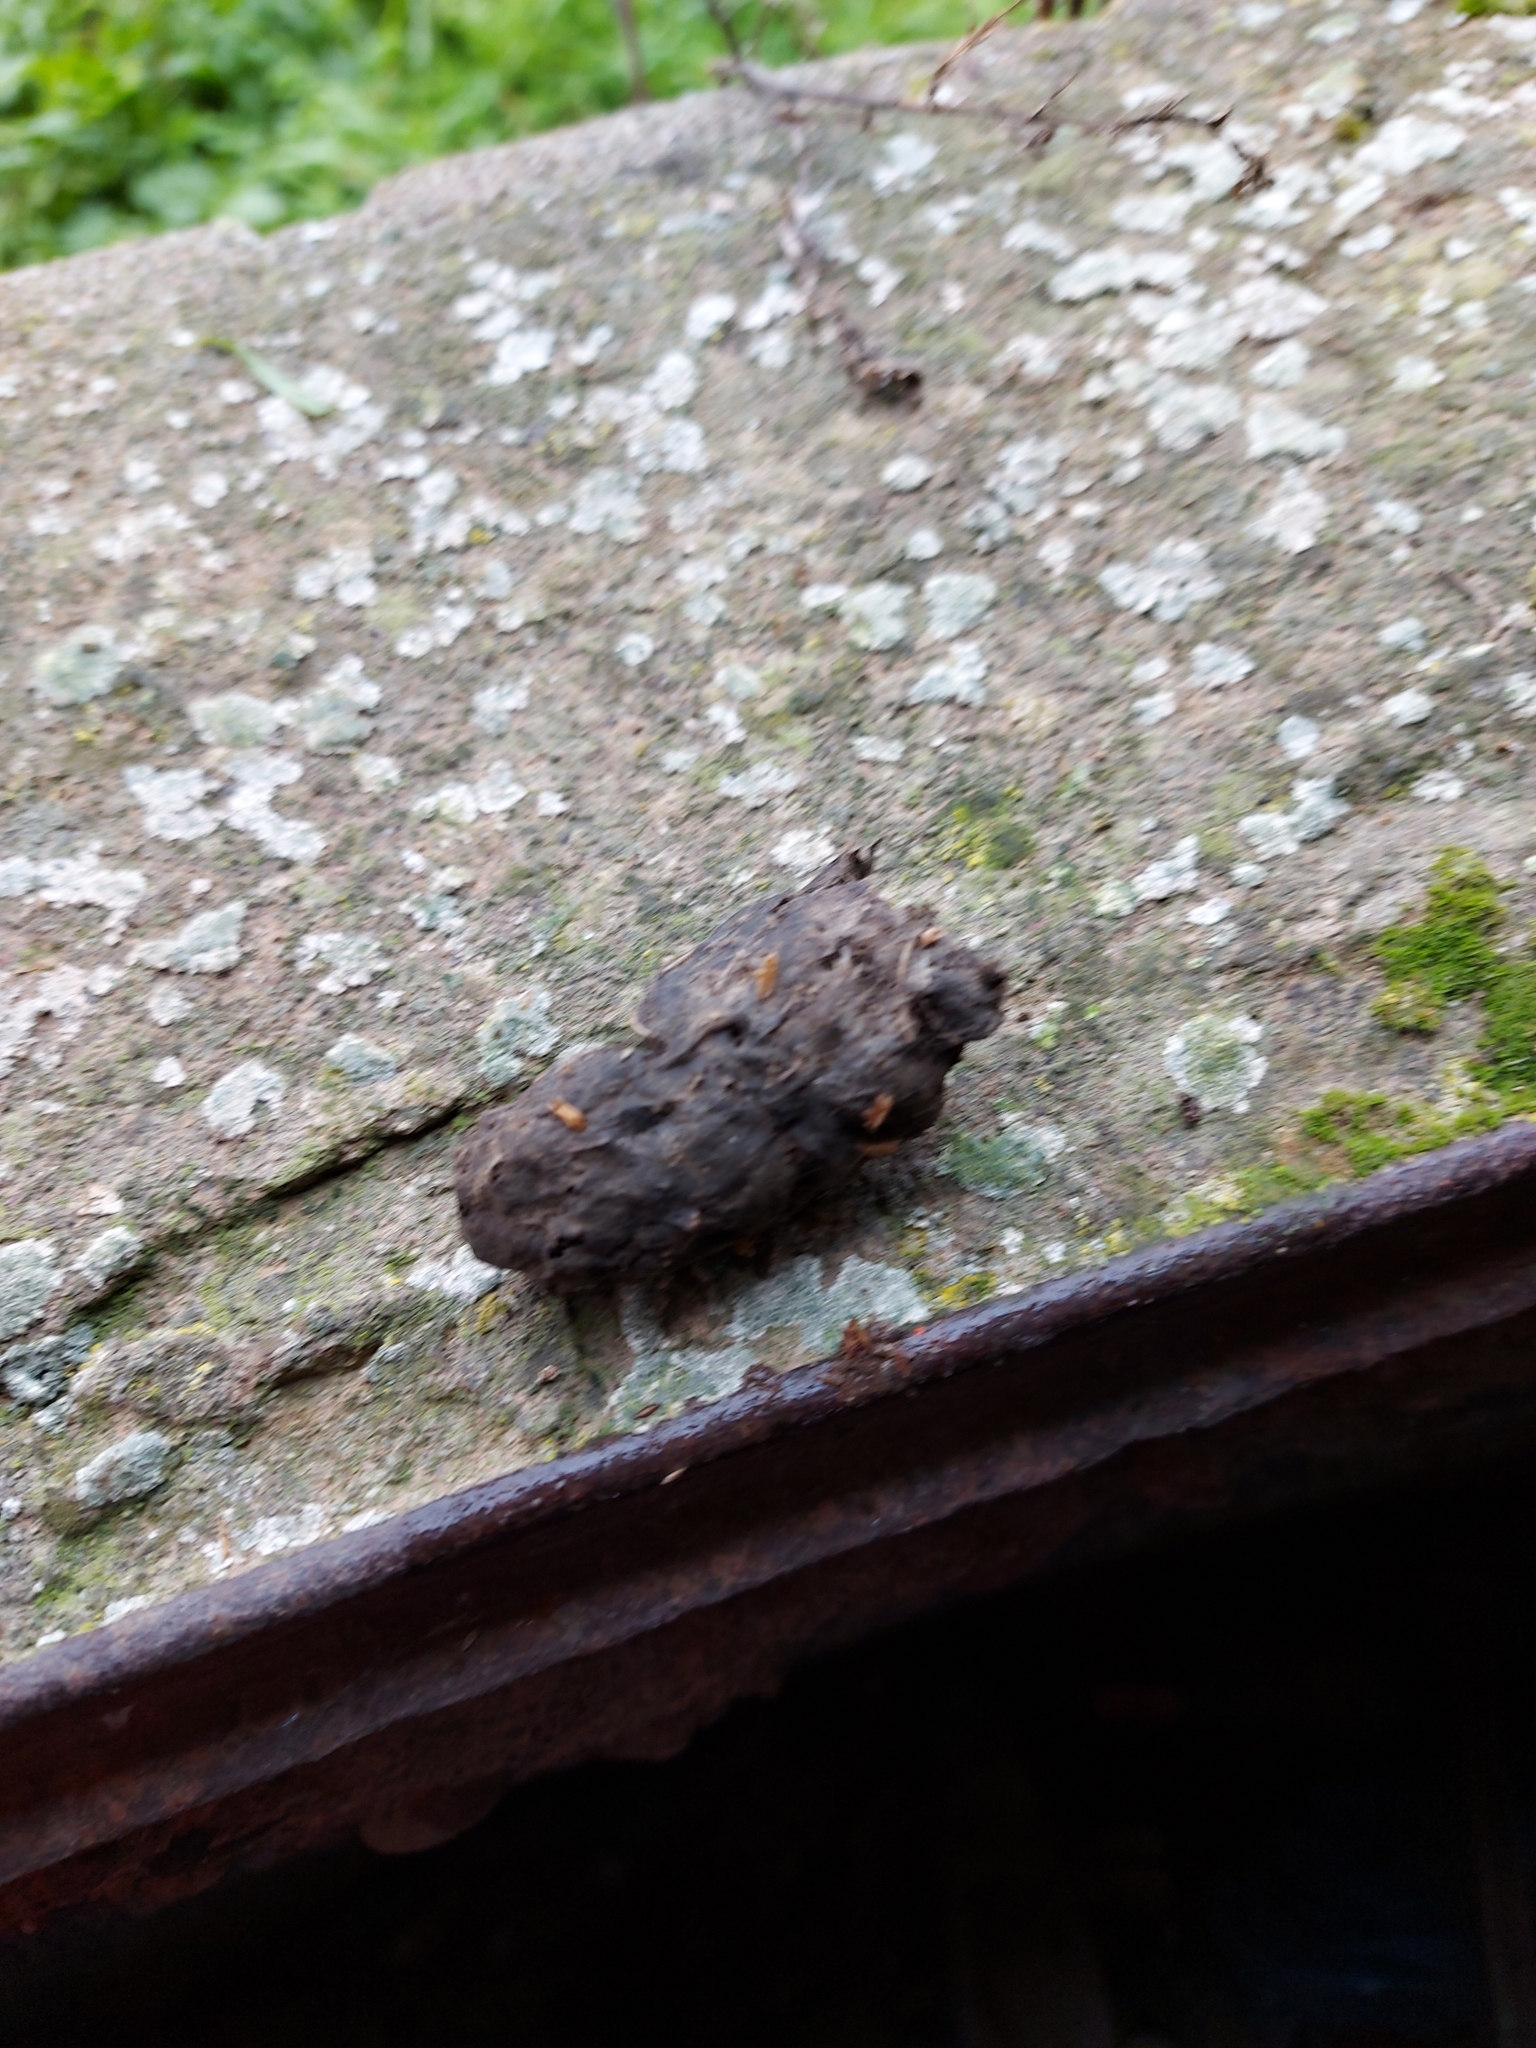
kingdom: Animalia
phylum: Chordata
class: Aves
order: Strigiformes
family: Tytonidae
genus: Tyto
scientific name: Tyto alba
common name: Barn owl
